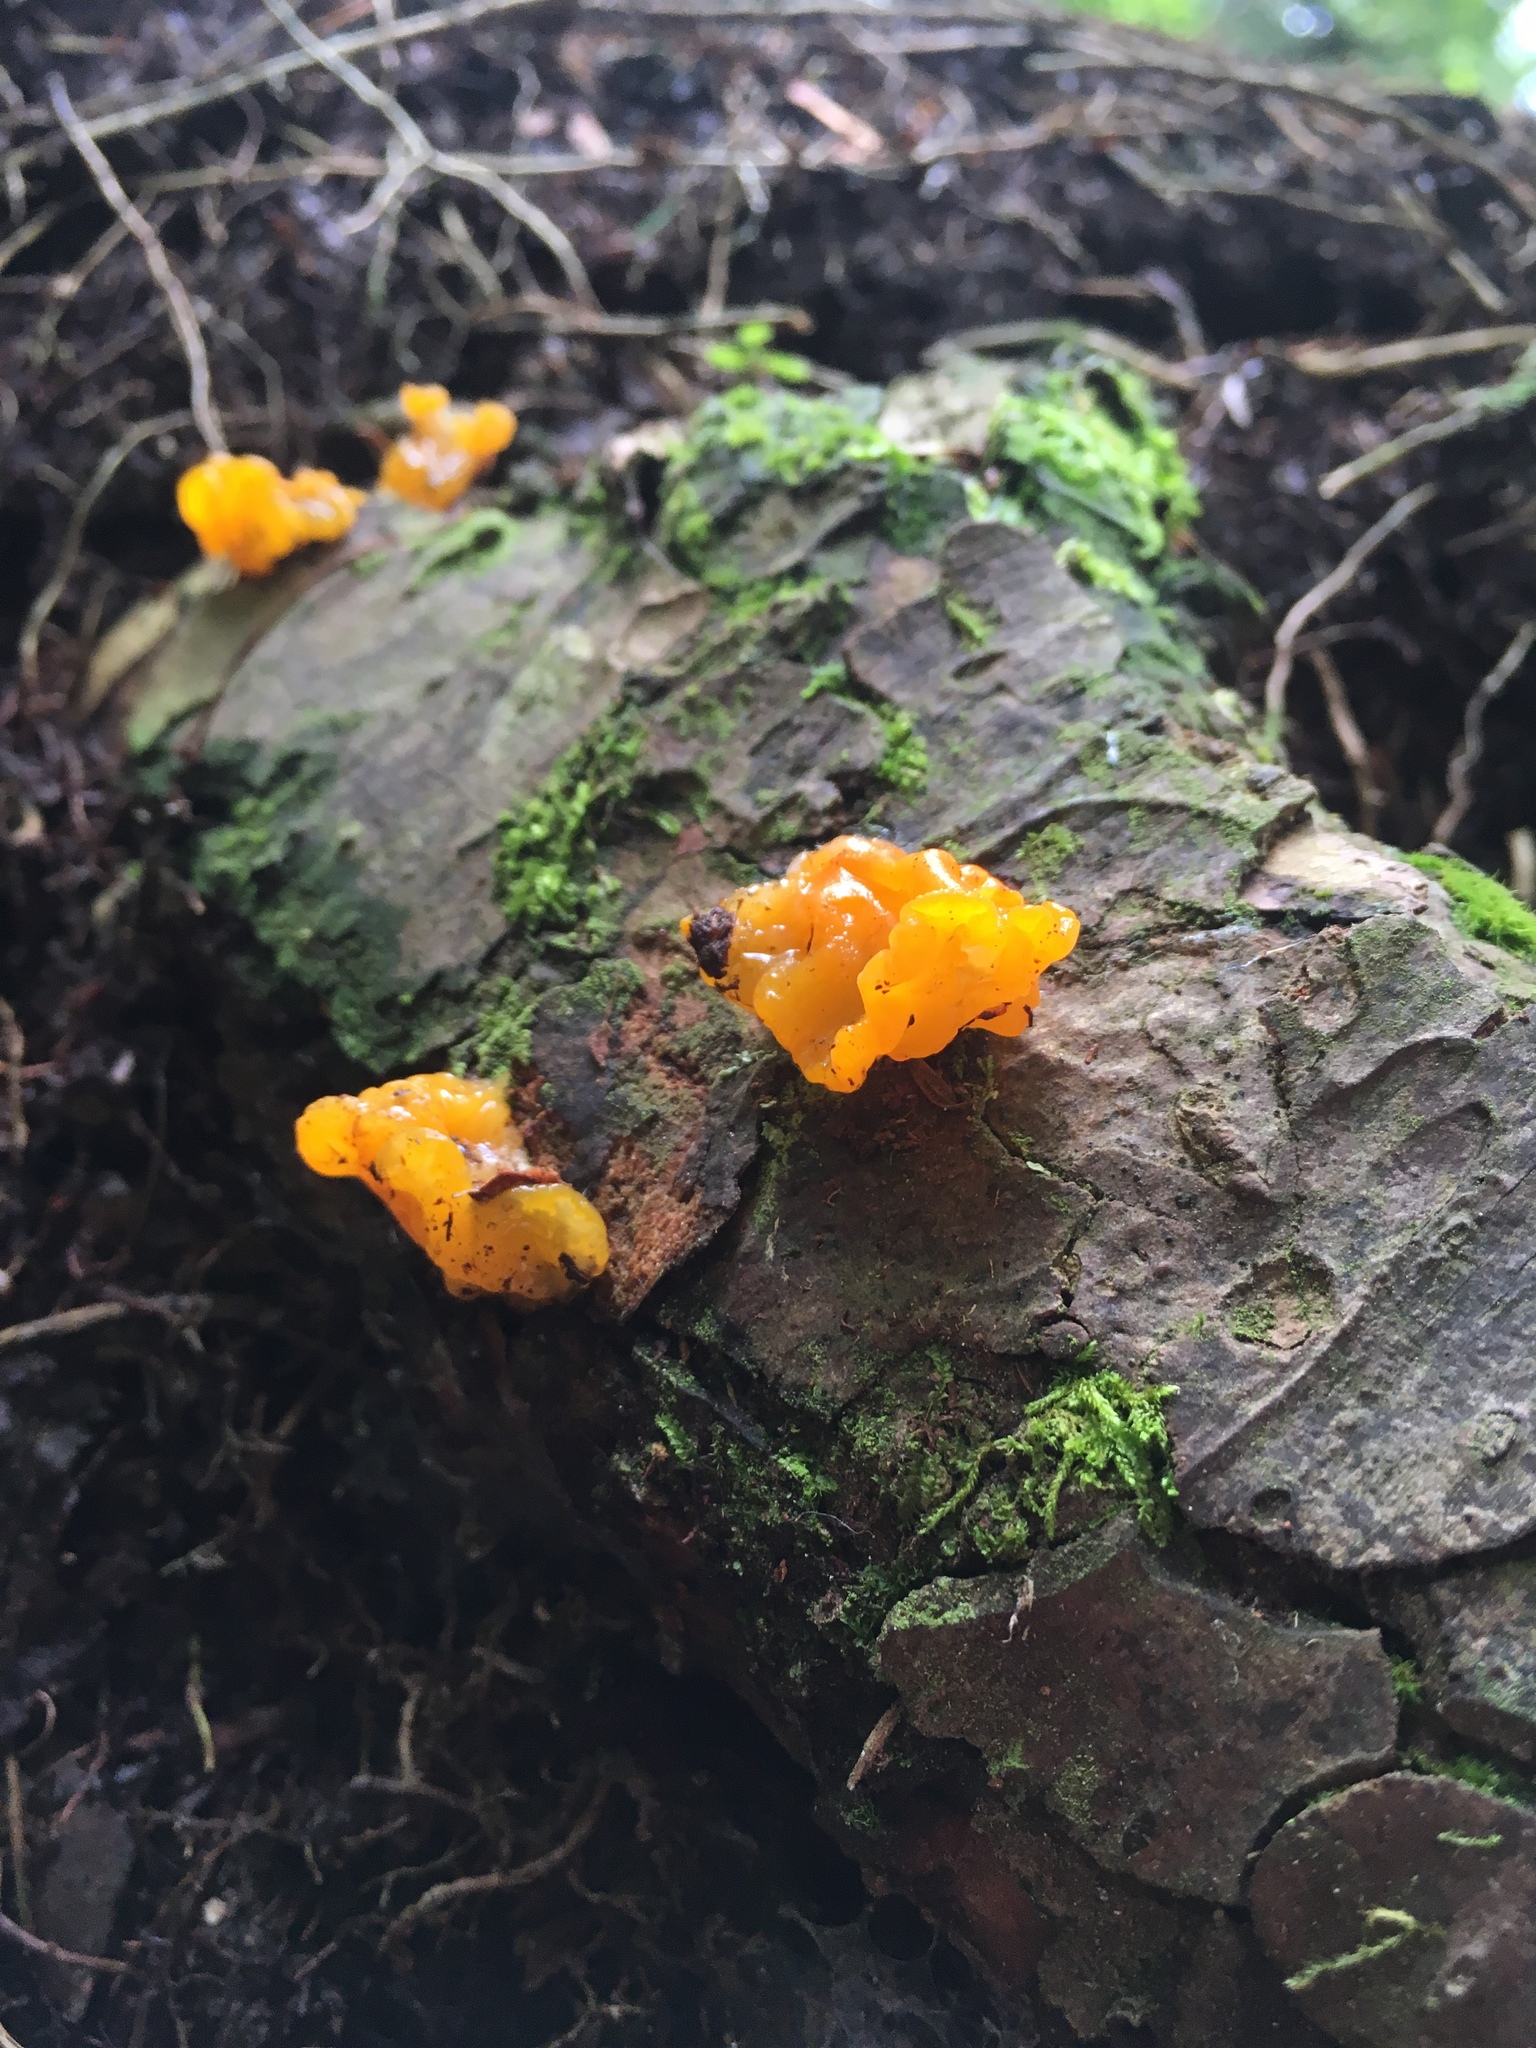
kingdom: Fungi
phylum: Basidiomycota
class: Dacrymycetes
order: Dacrymycetales
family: Dacrymycetaceae
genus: Dacrymyces
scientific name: Dacrymyces chrysospermus
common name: Orange jelly spot
